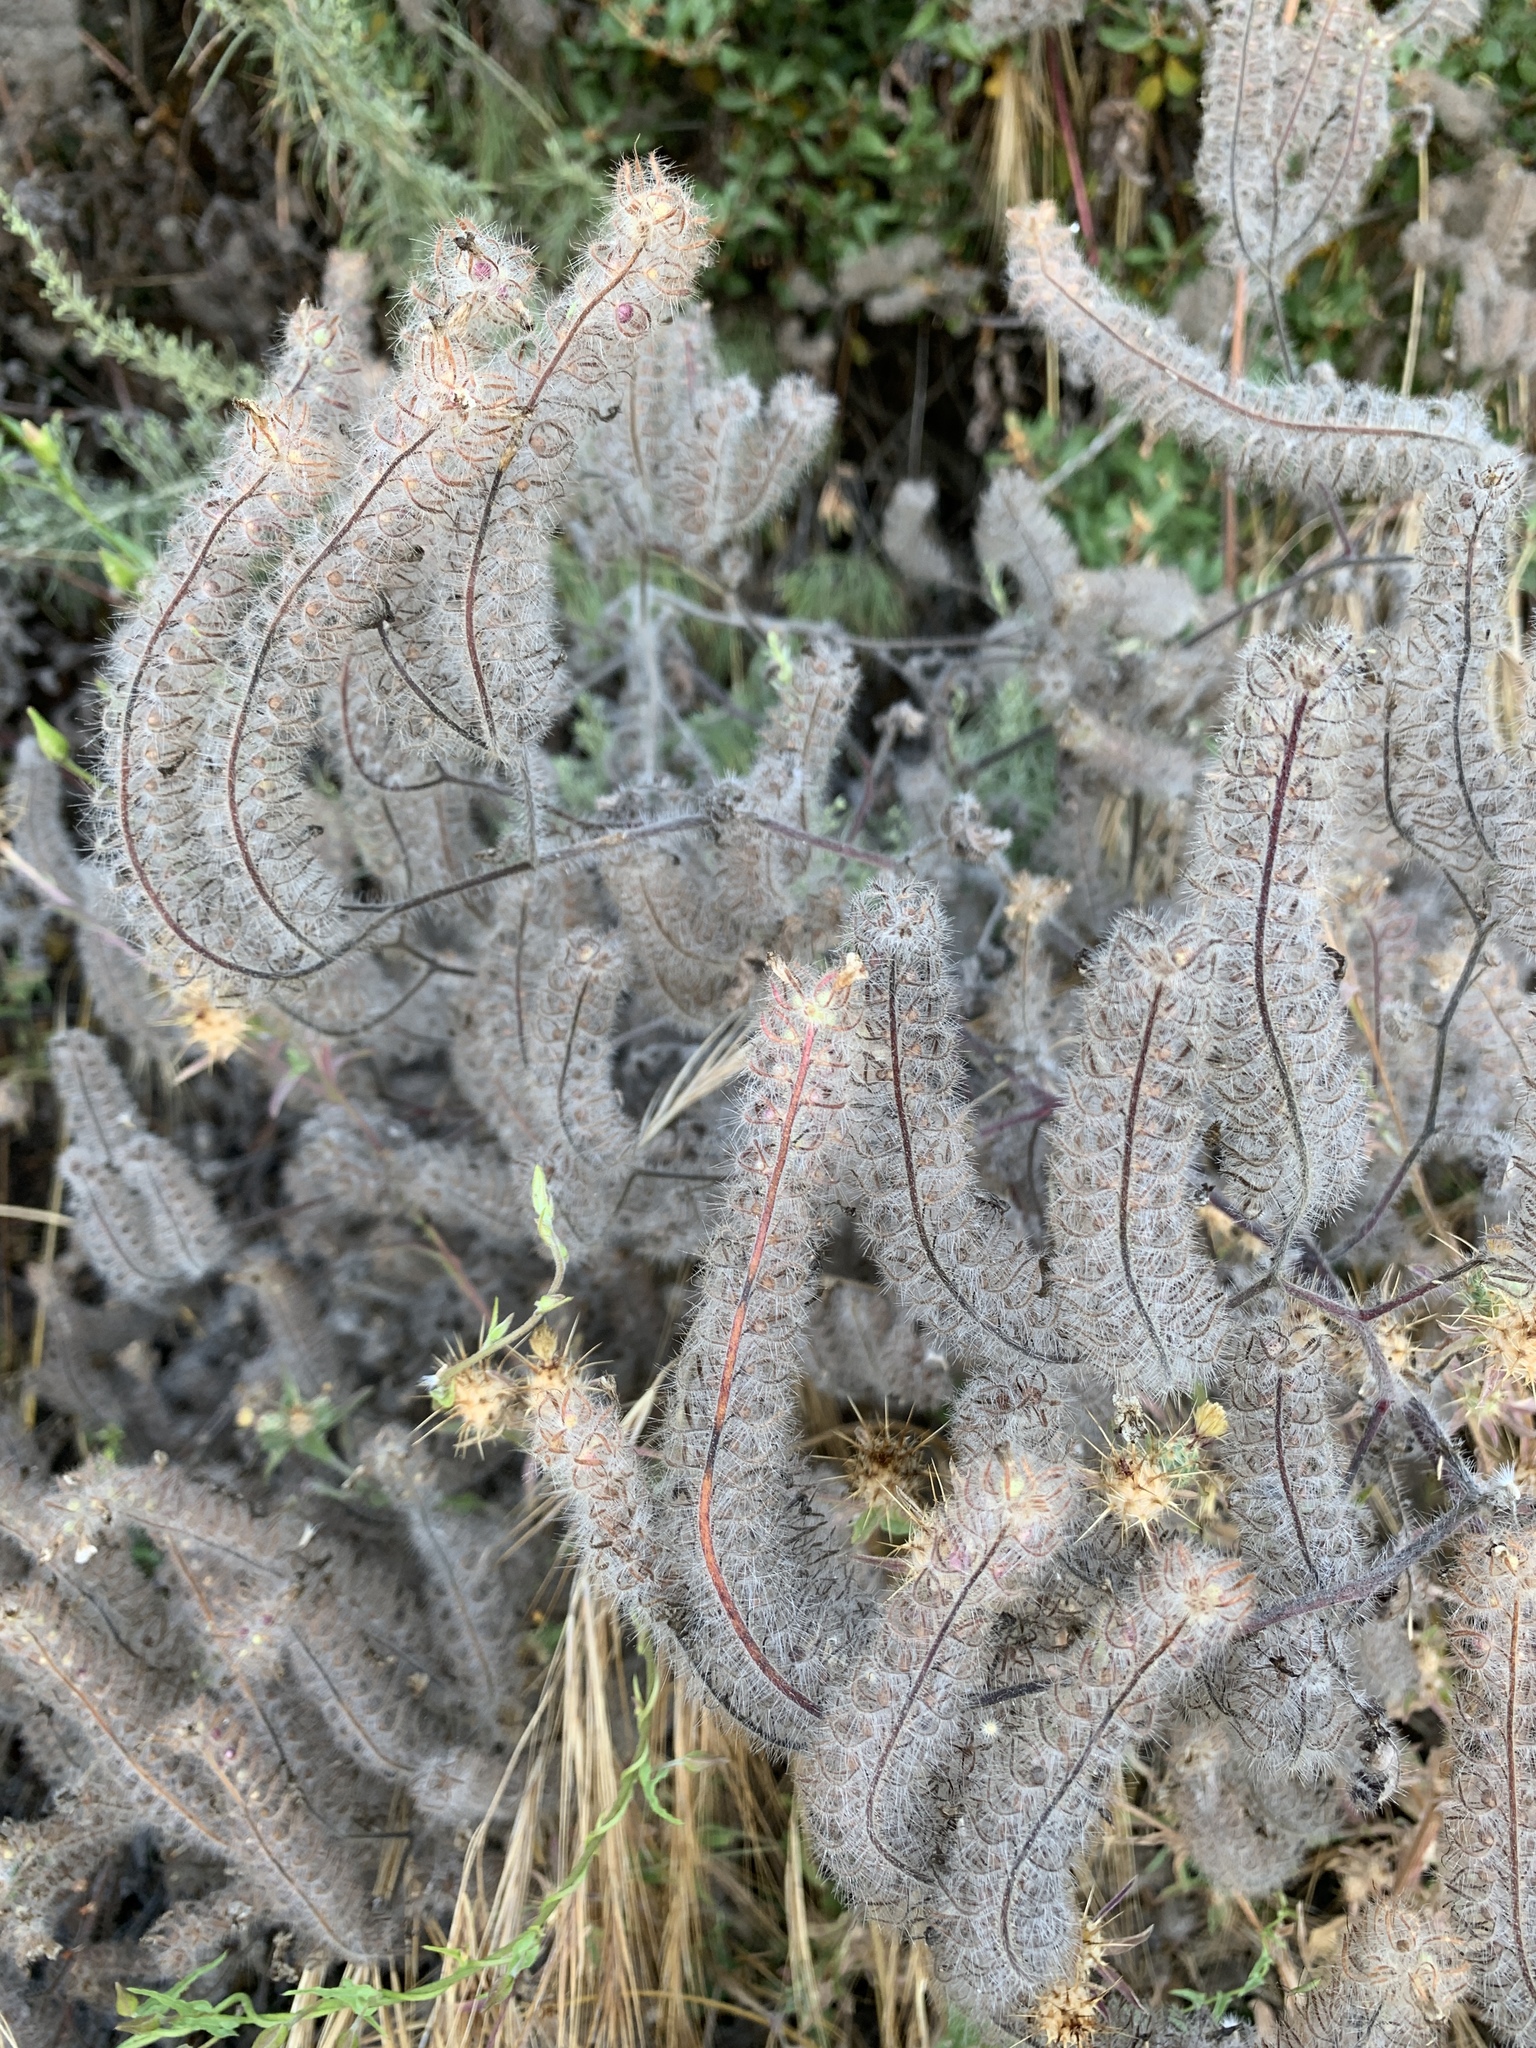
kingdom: Plantae
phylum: Tracheophyta
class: Magnoliopsida
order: Boraginales
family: Hydrophyllaceae
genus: Phacelia
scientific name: Phacelia cicutaria
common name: Caterpillar phacelia
